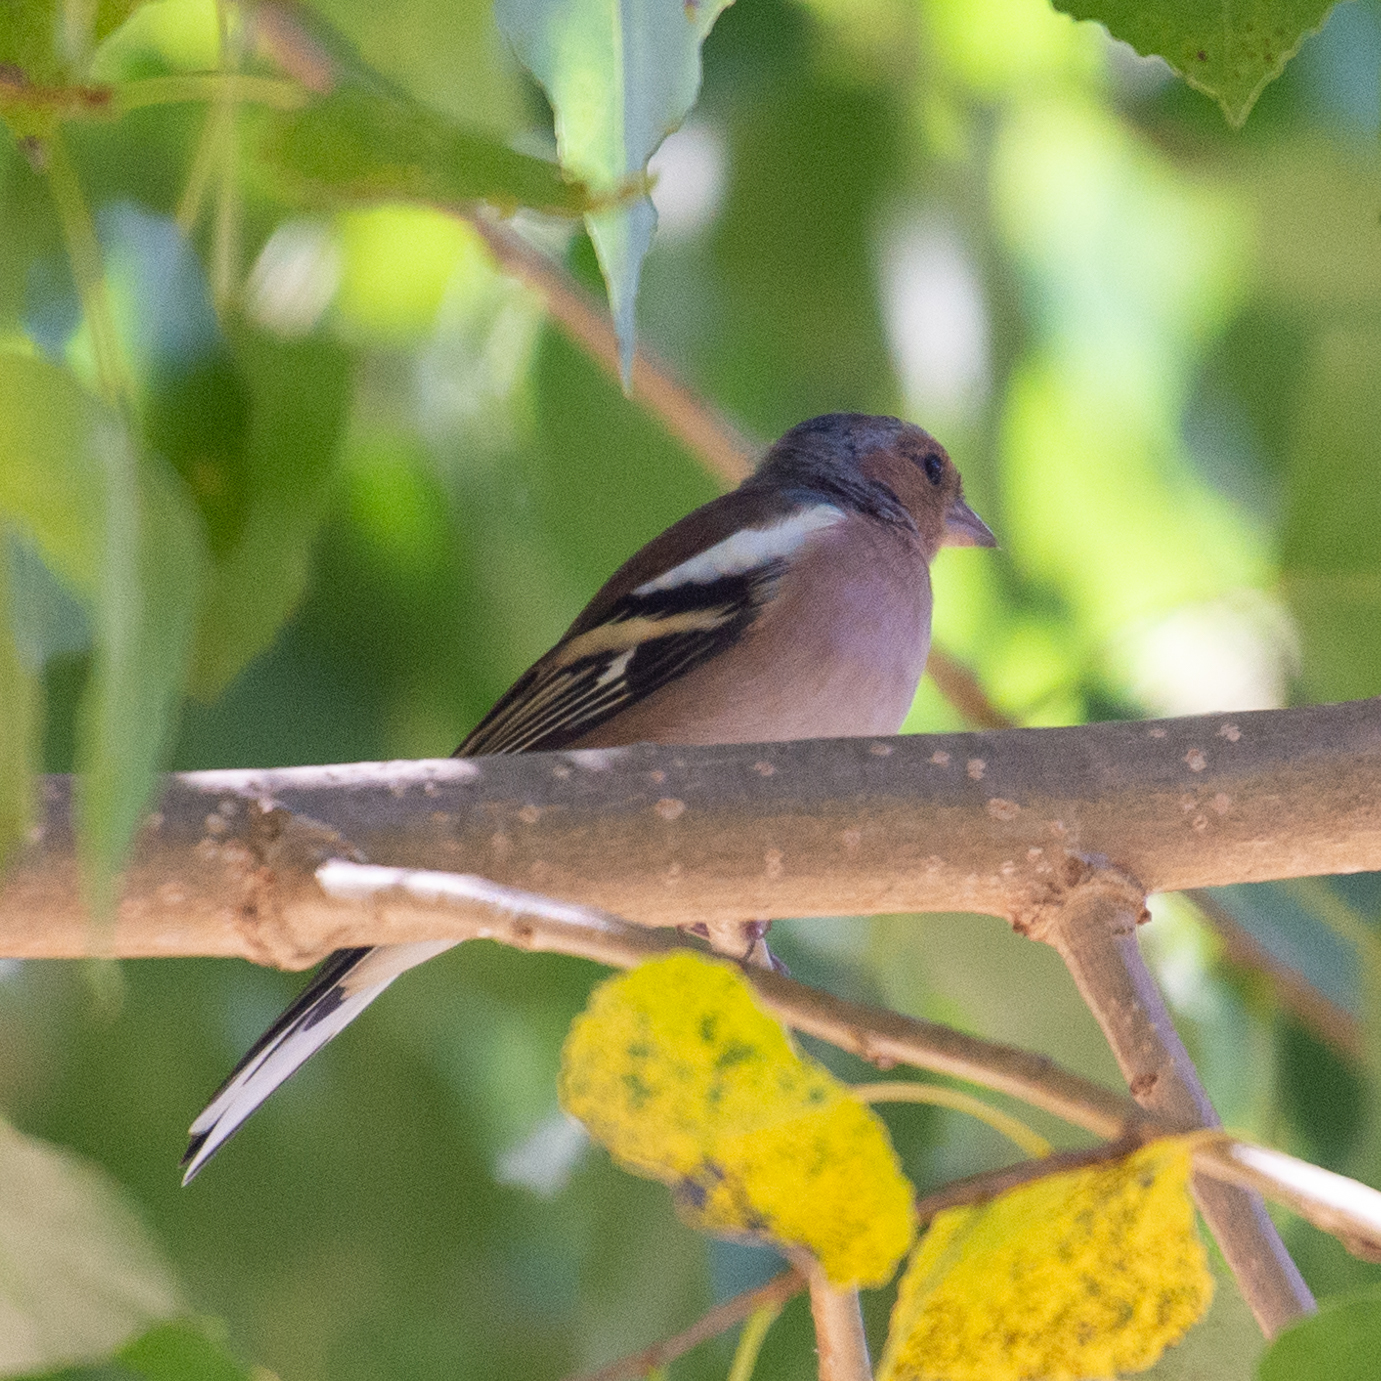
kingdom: Animalia
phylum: Chordata
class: Aves
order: Passeriformes
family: Fringillidae
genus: Fringilla
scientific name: Fringilla coelebs
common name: Common chaffinch
